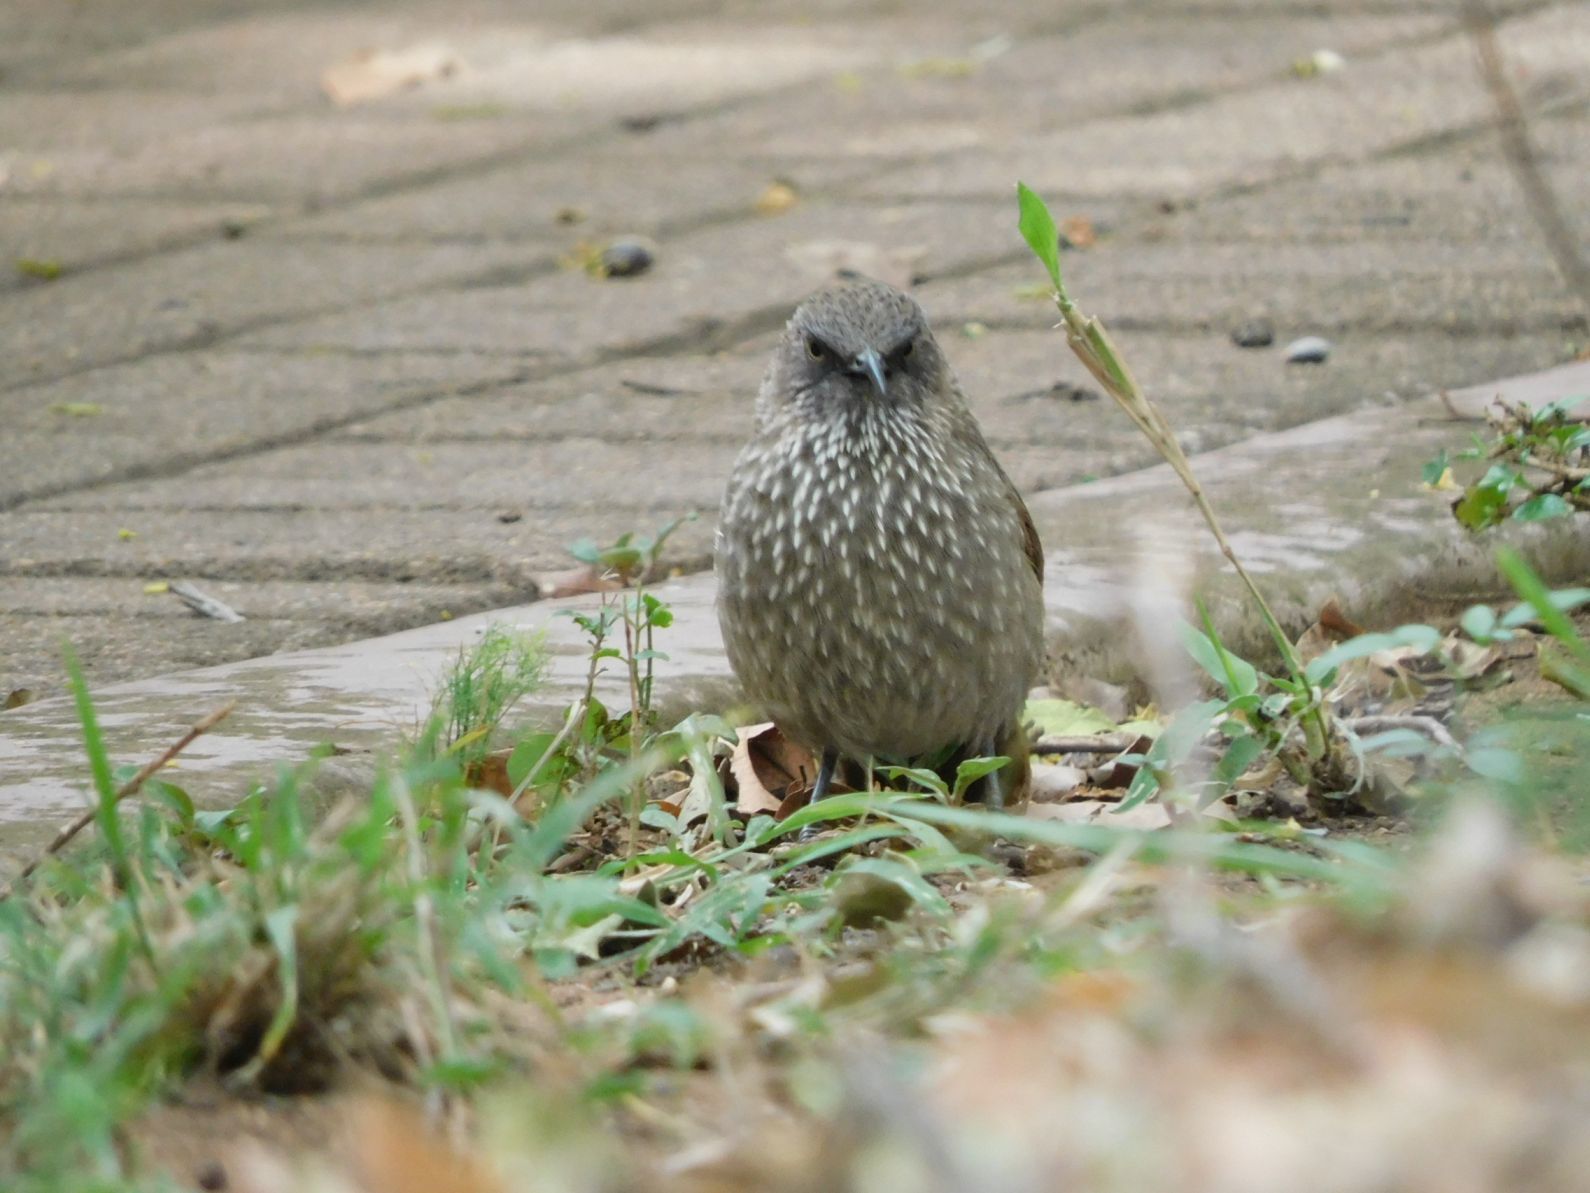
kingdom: Animalia
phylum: Chordata
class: Aves
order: Passeriformes
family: Leiothrichidae
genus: Turdoides
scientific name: Turdoides jardineii
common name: Arrow-marked babbler
